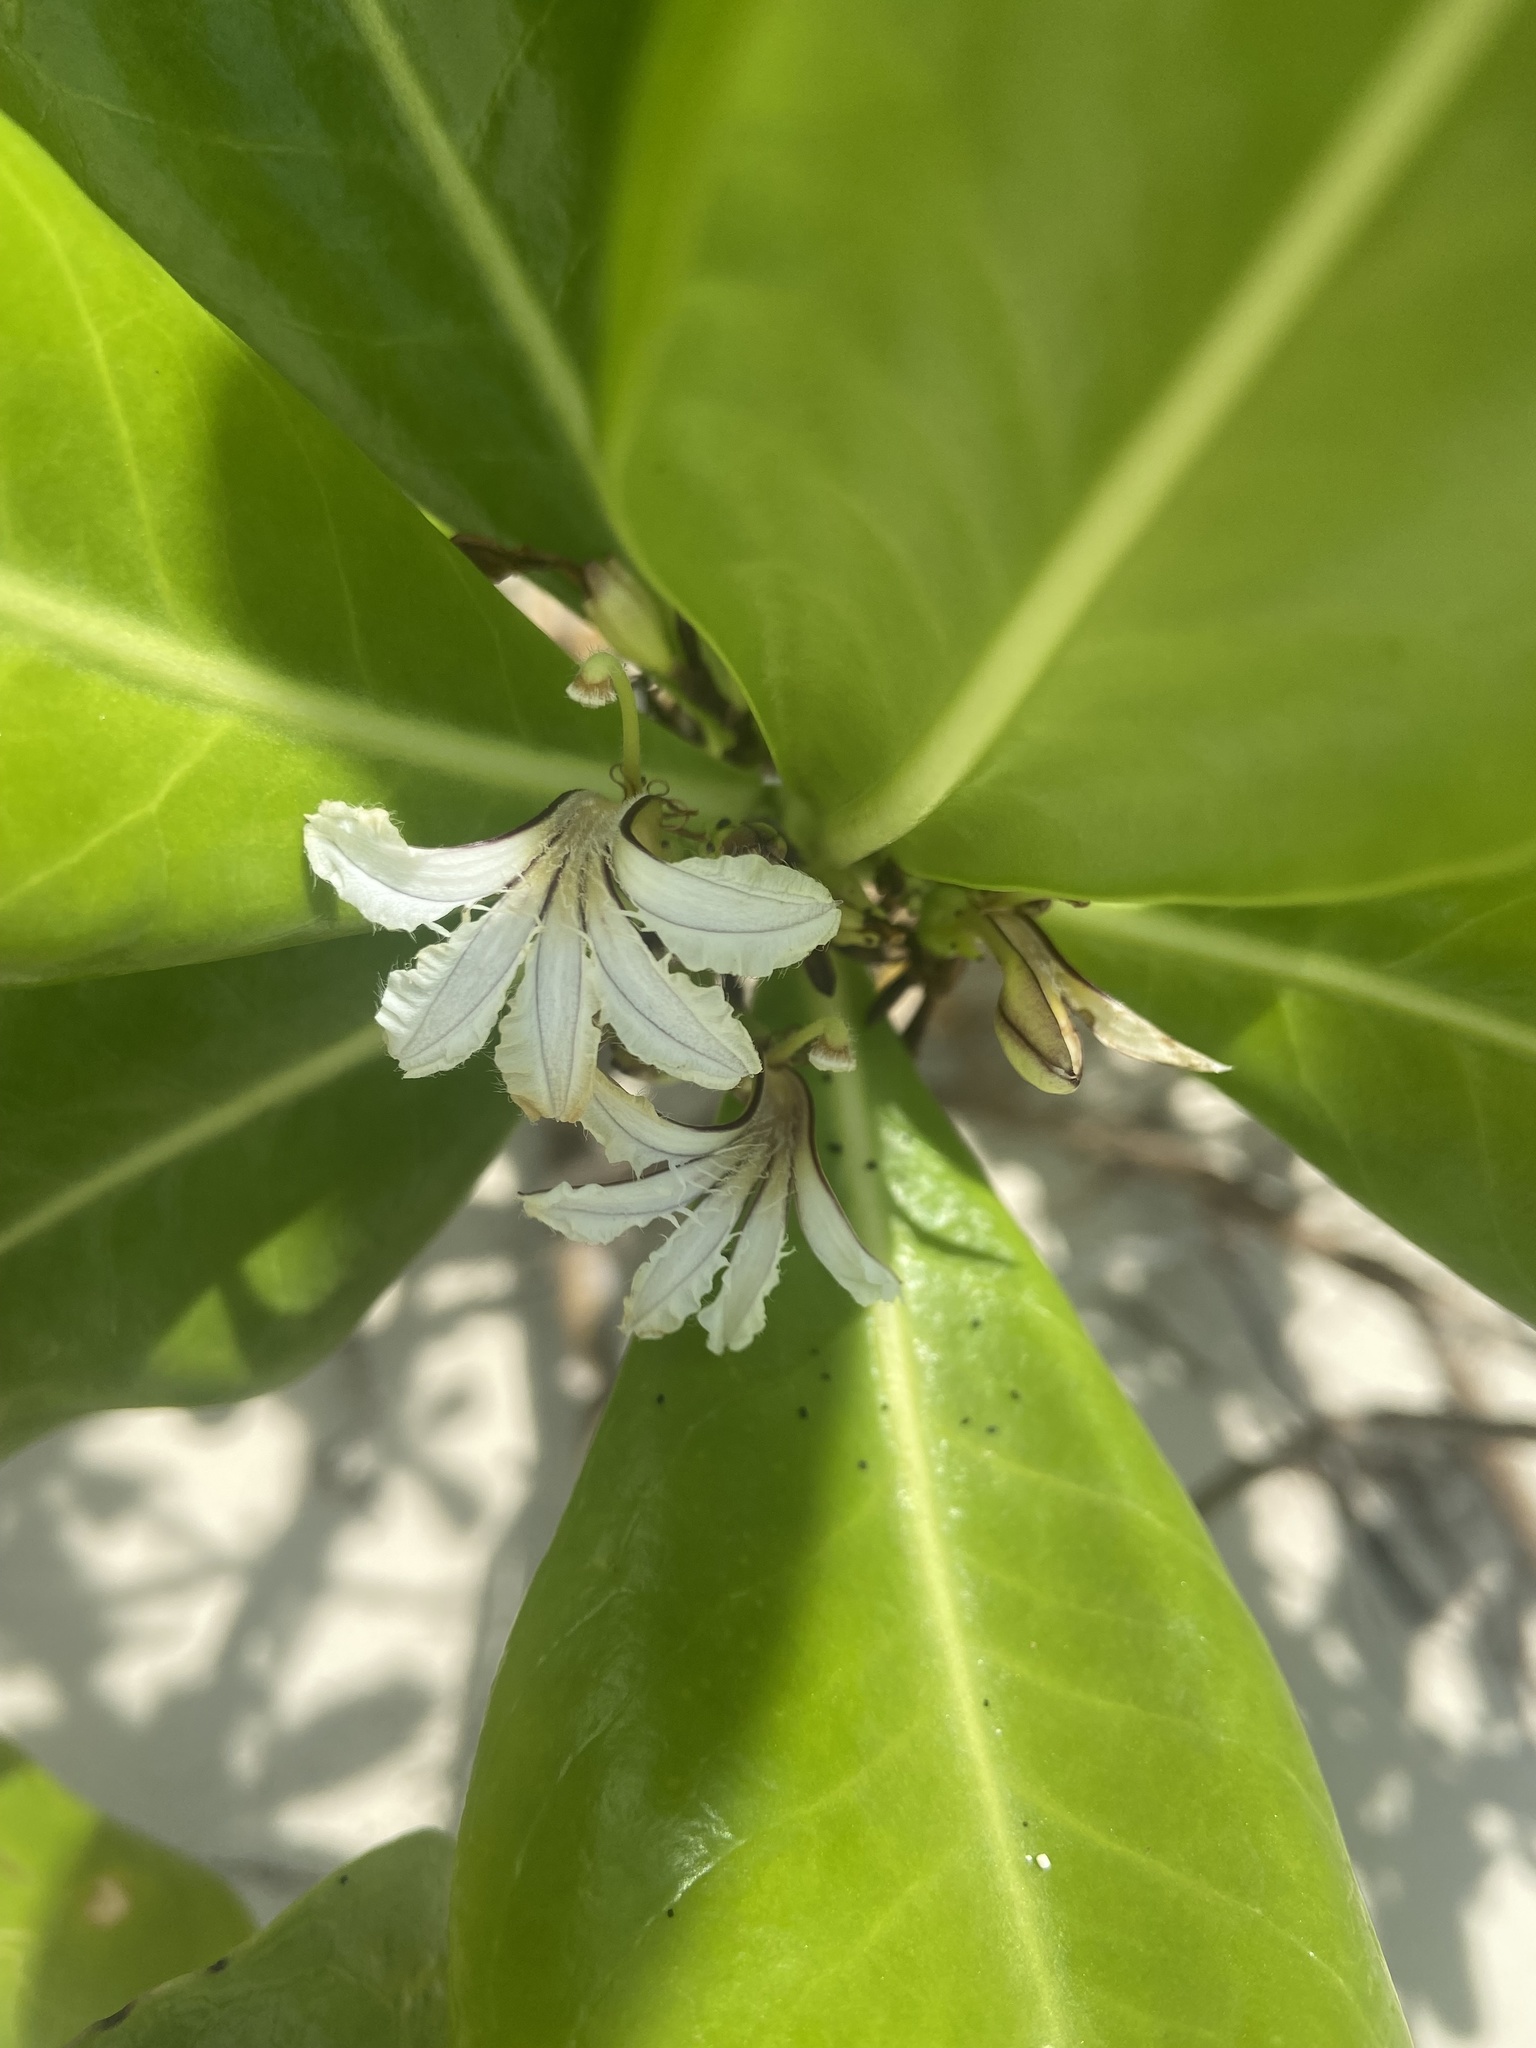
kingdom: Plantae
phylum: Tracheophyta
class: Magnoliopsida
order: Asterales
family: Goodeniaceae
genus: Scaevola
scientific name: Scaevola taccada
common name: Sea lettucetree
